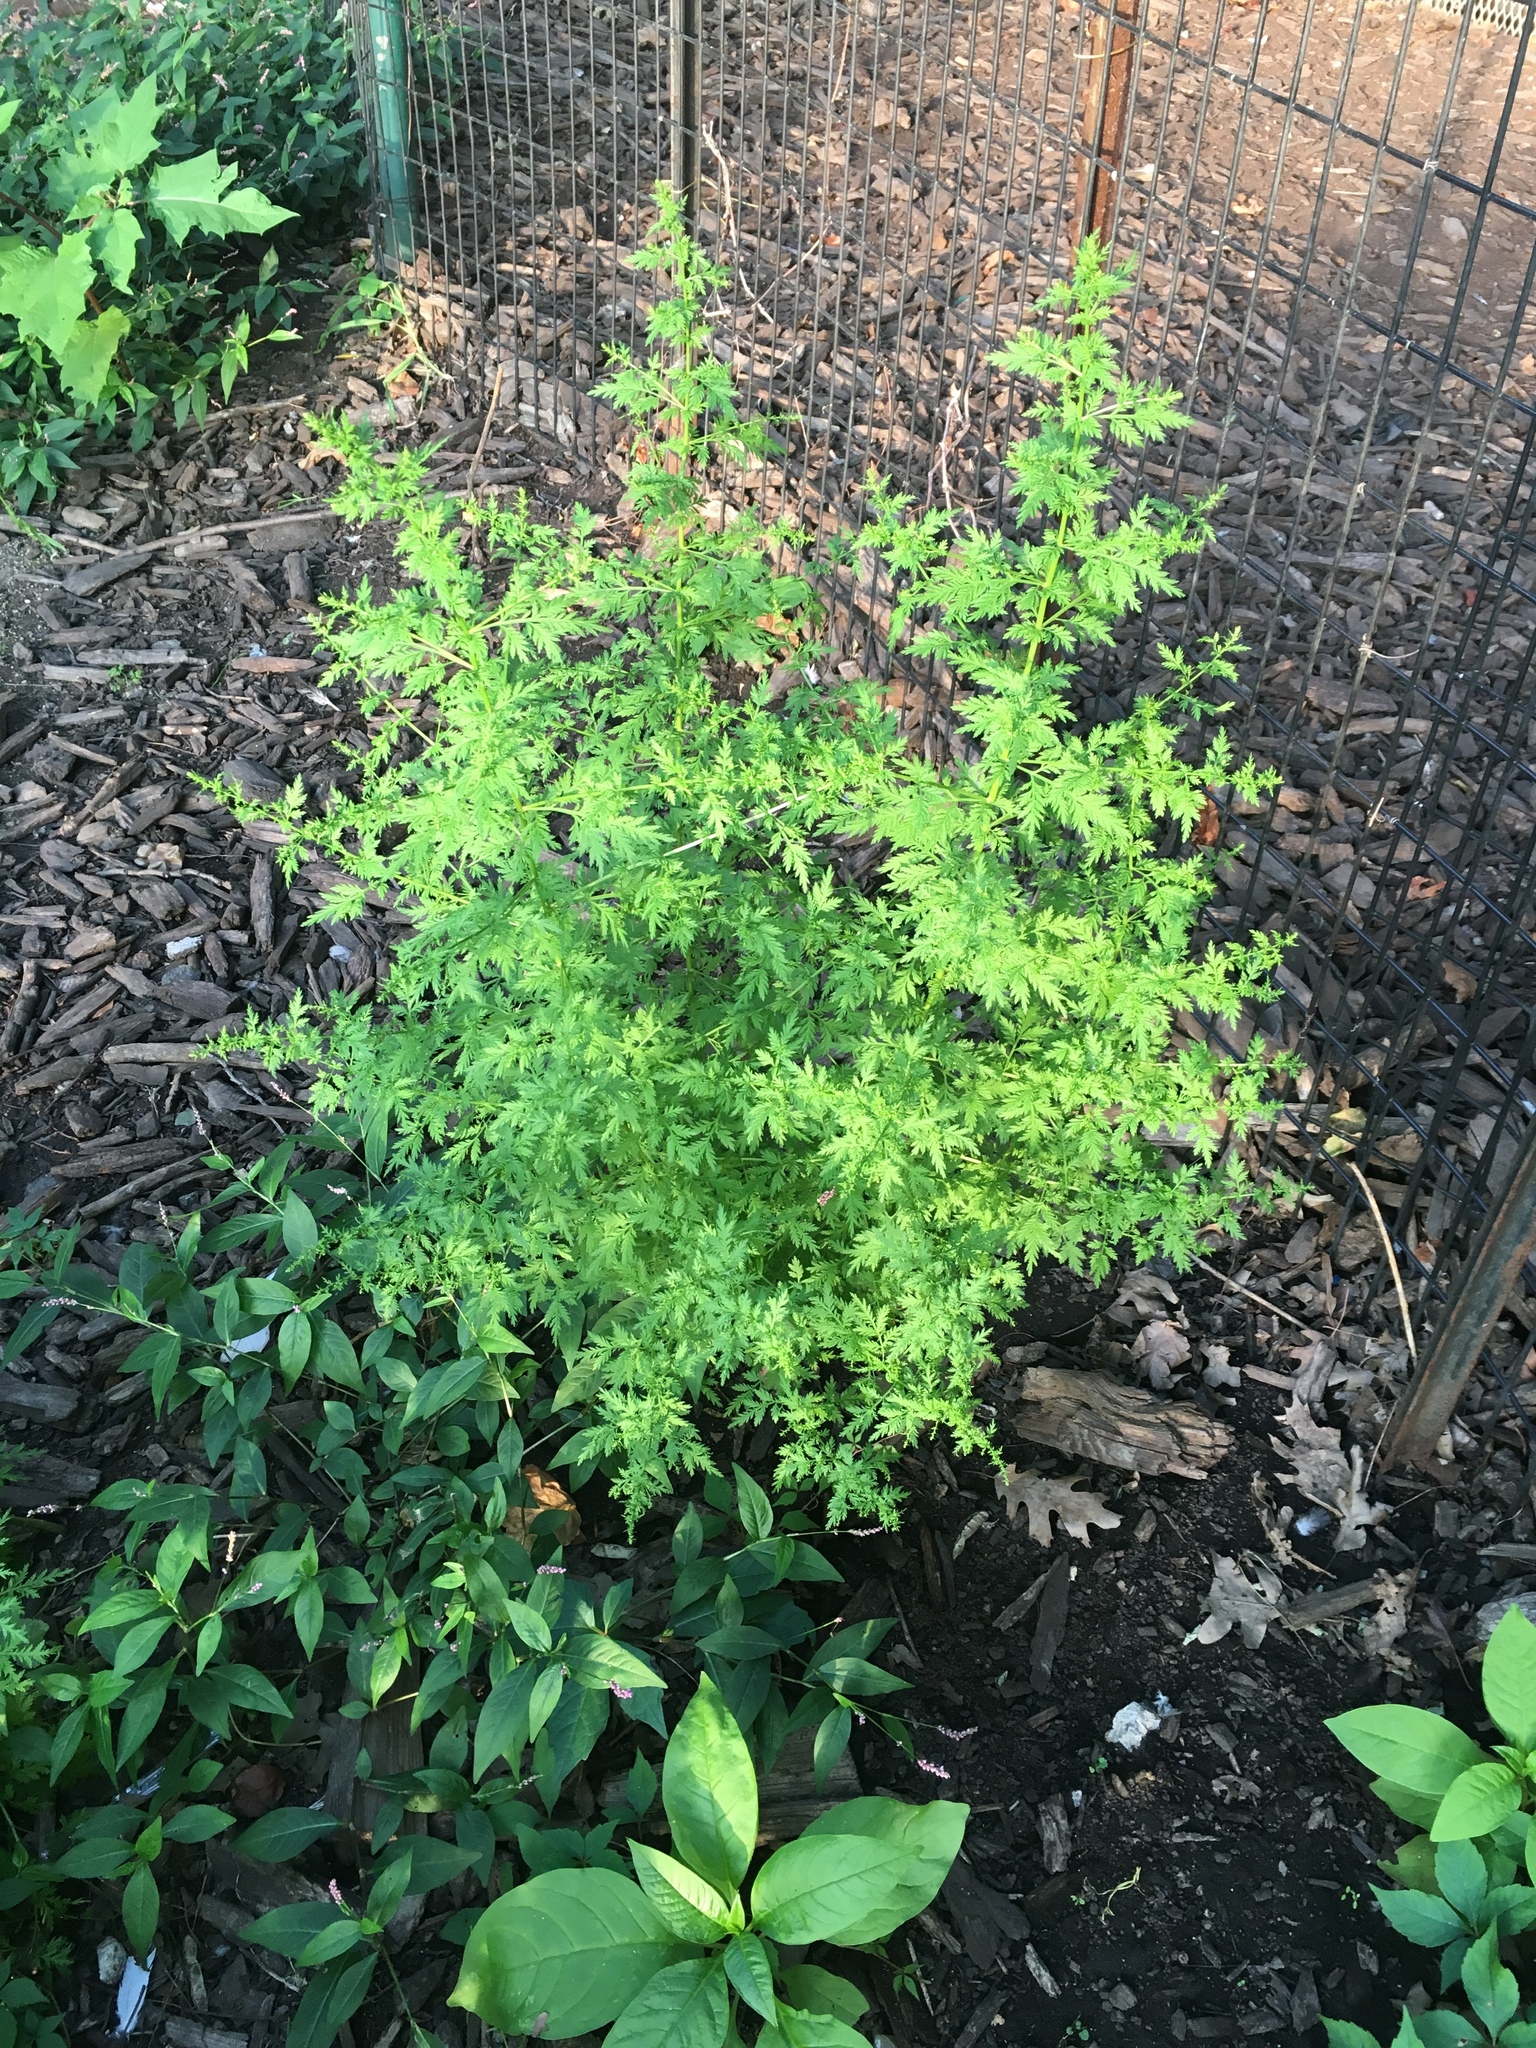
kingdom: Plantae
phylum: Tracheophyta
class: Magnoliopsida
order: Asterales
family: Asteraceae
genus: Artemisia
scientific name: Artemisia annua
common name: Sweet sagewort
